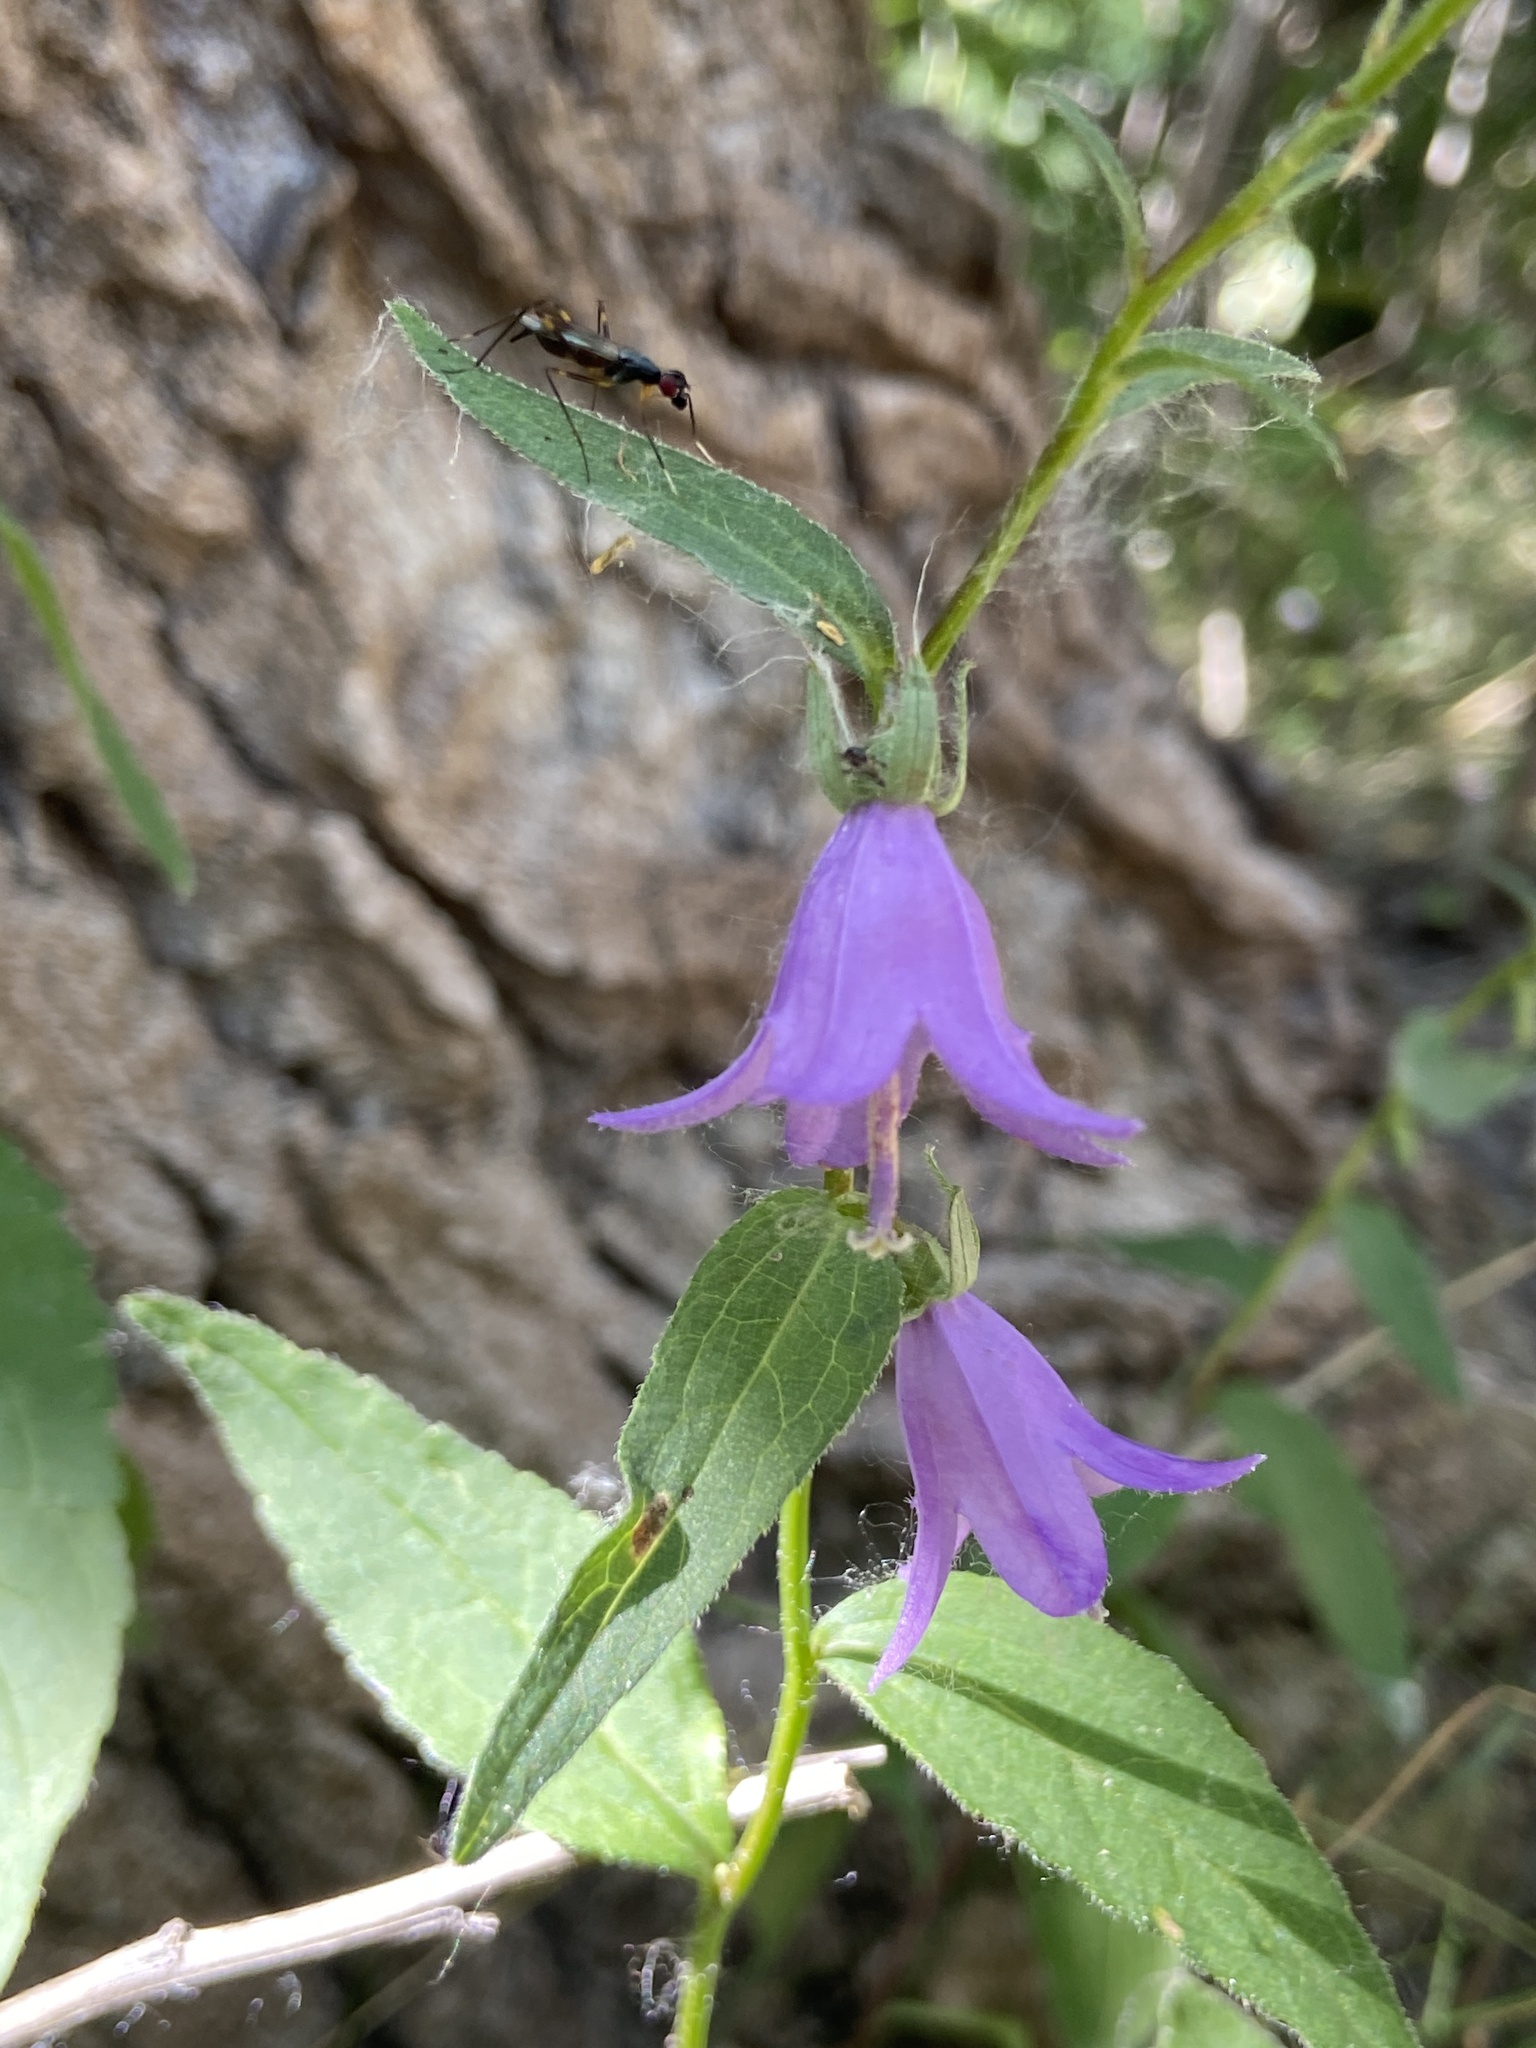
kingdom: Plantae
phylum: Tracheophyta
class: Magnoliopsida
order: Asterales
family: Campanulaceae
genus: Campanula
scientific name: Campanula rapunculoides
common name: Creeping bellflower
